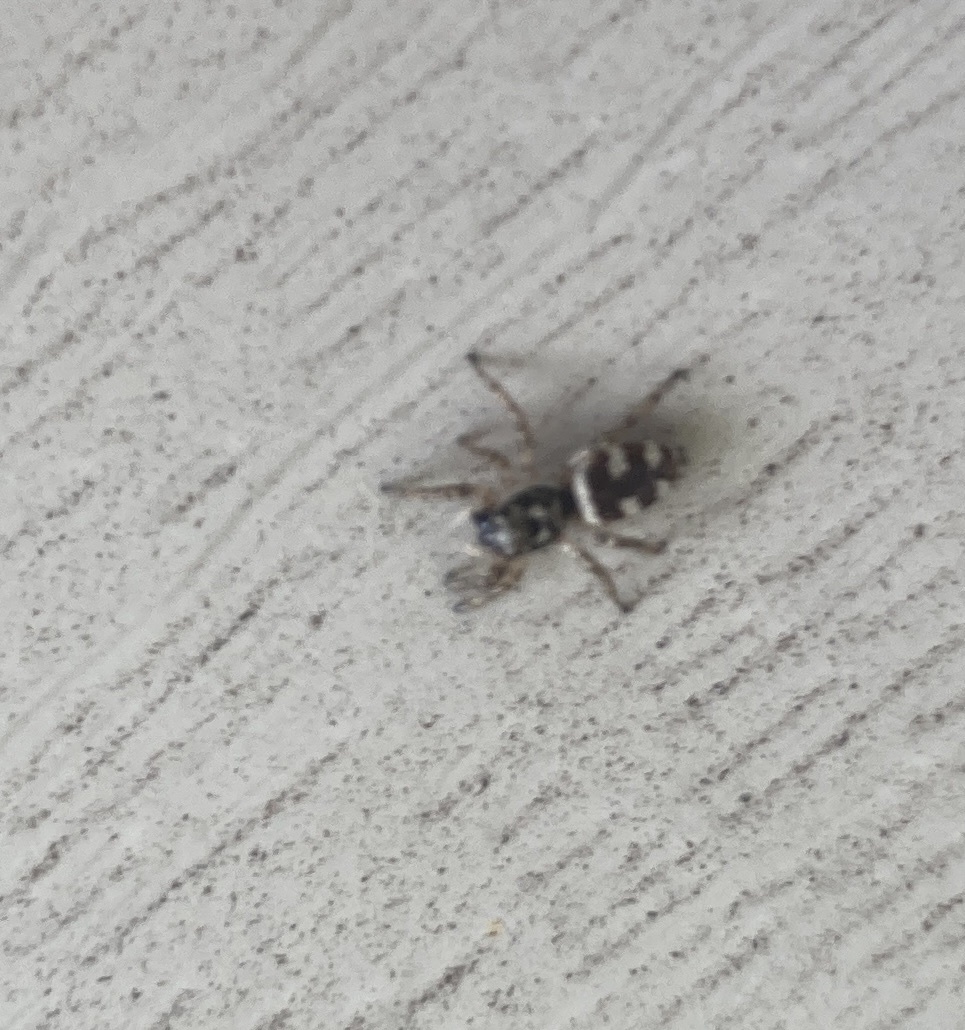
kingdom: Animalia
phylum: Arthropoda
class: Arachnida
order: Araneae
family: Salticidae
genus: Salticus
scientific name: Salticus scenicus
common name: Zebra jumper
